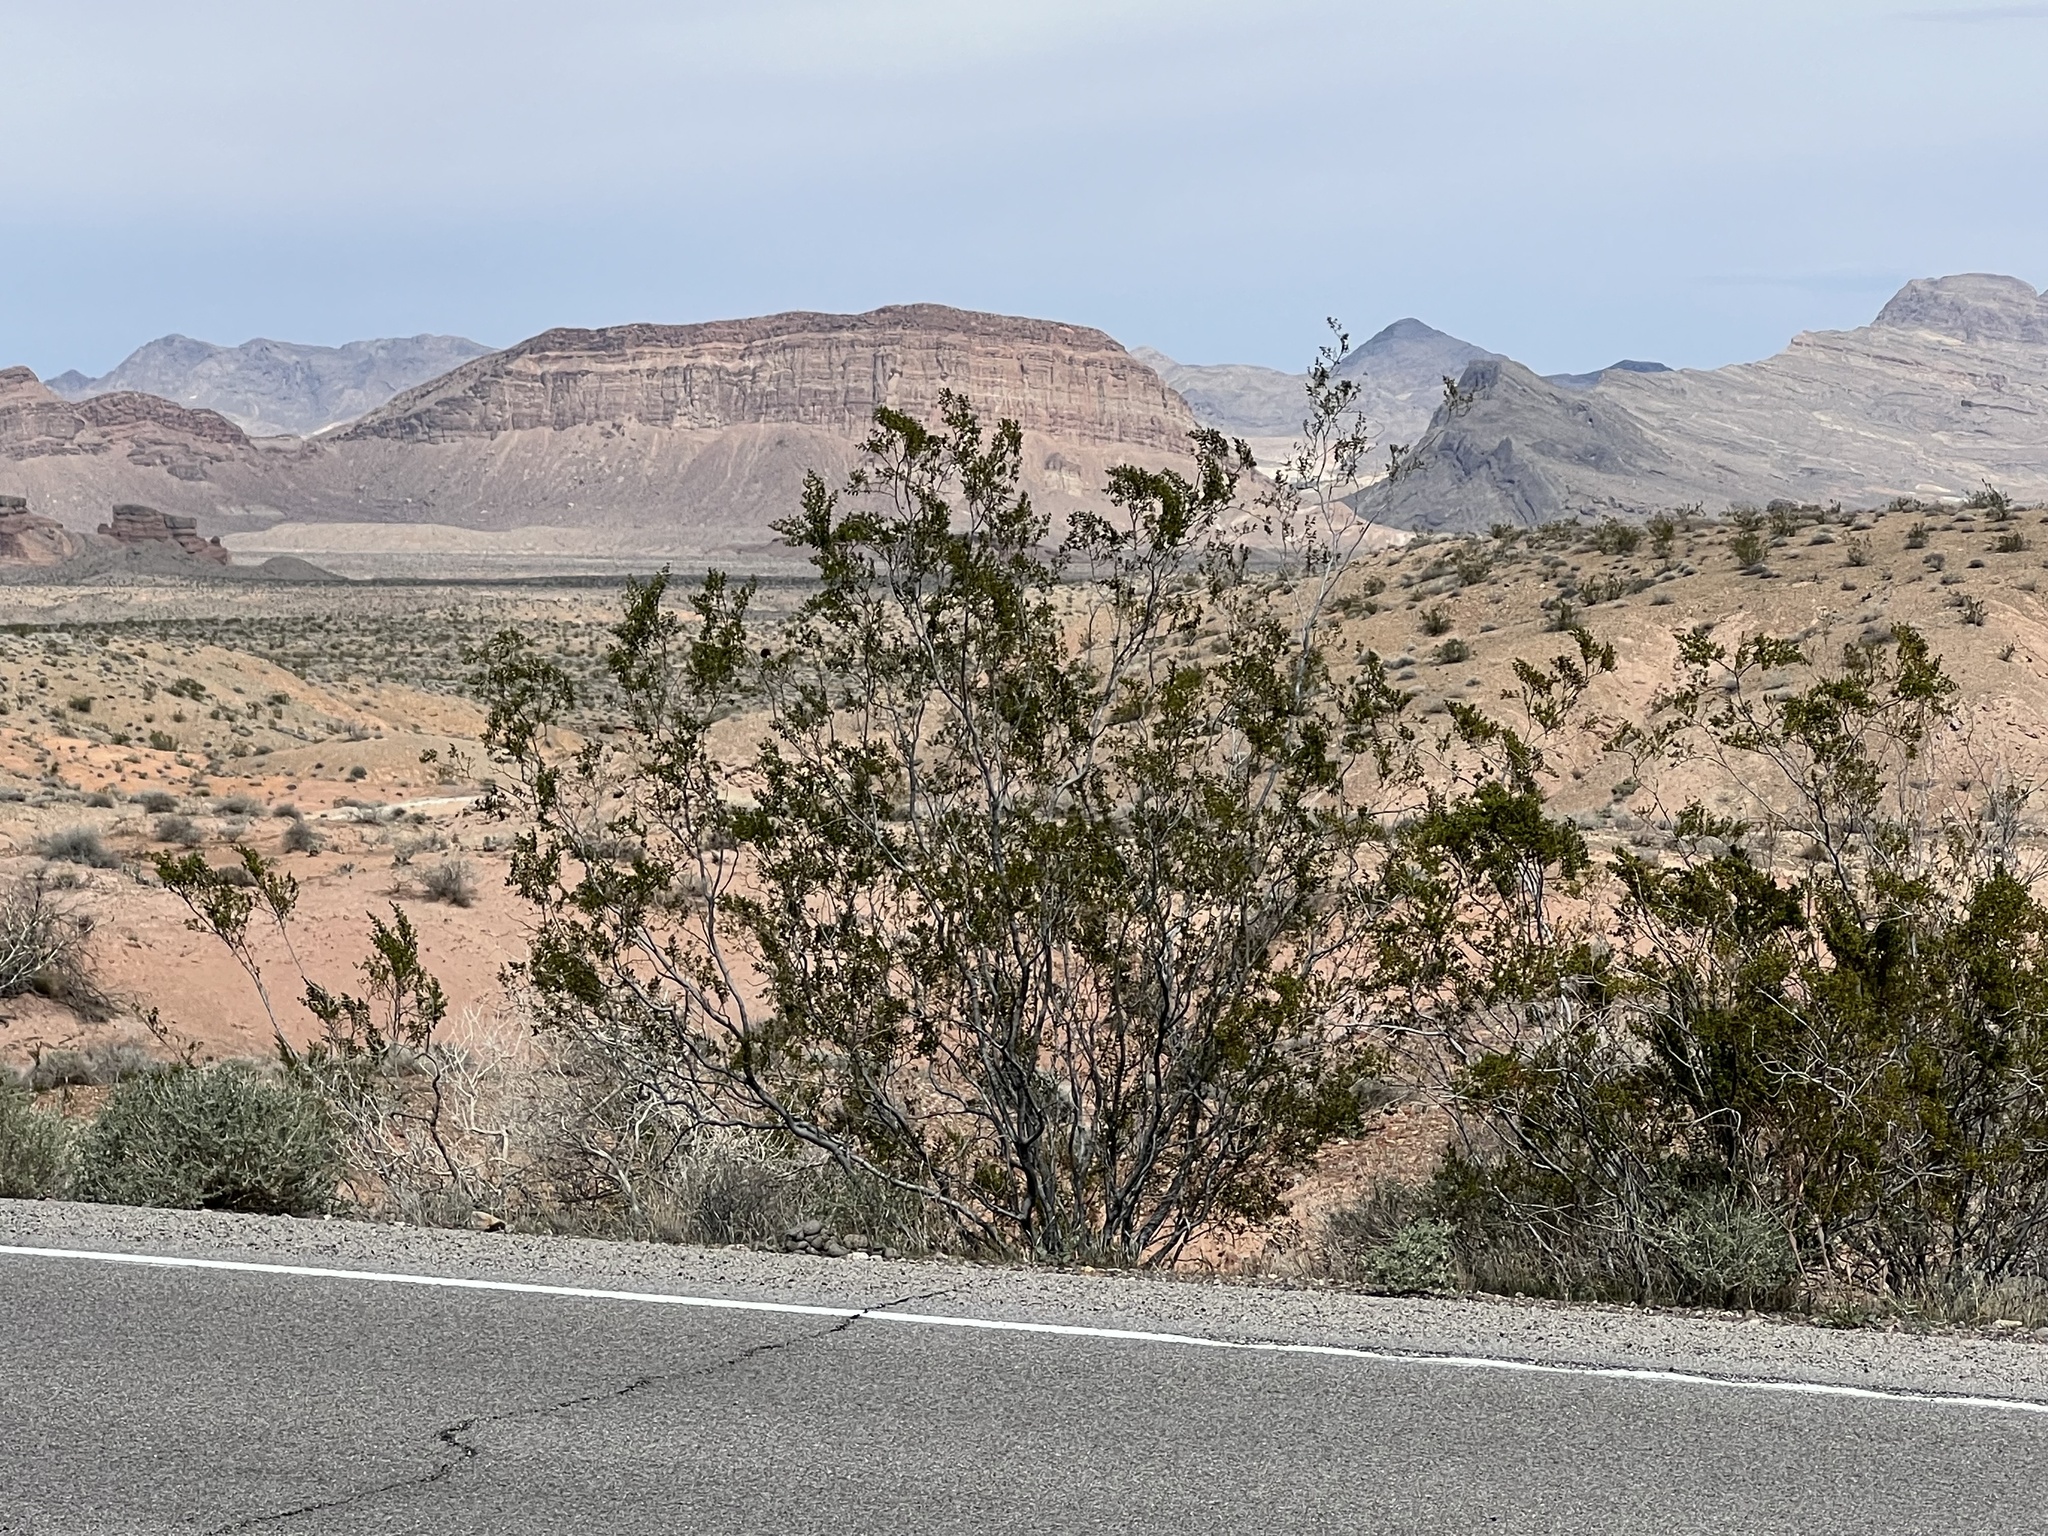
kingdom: Plantae
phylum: Tracheophyta
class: Magnoliopsida
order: Zygophyllales
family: Zygophyllaceae
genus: Larrea
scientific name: Larrea tridentata
